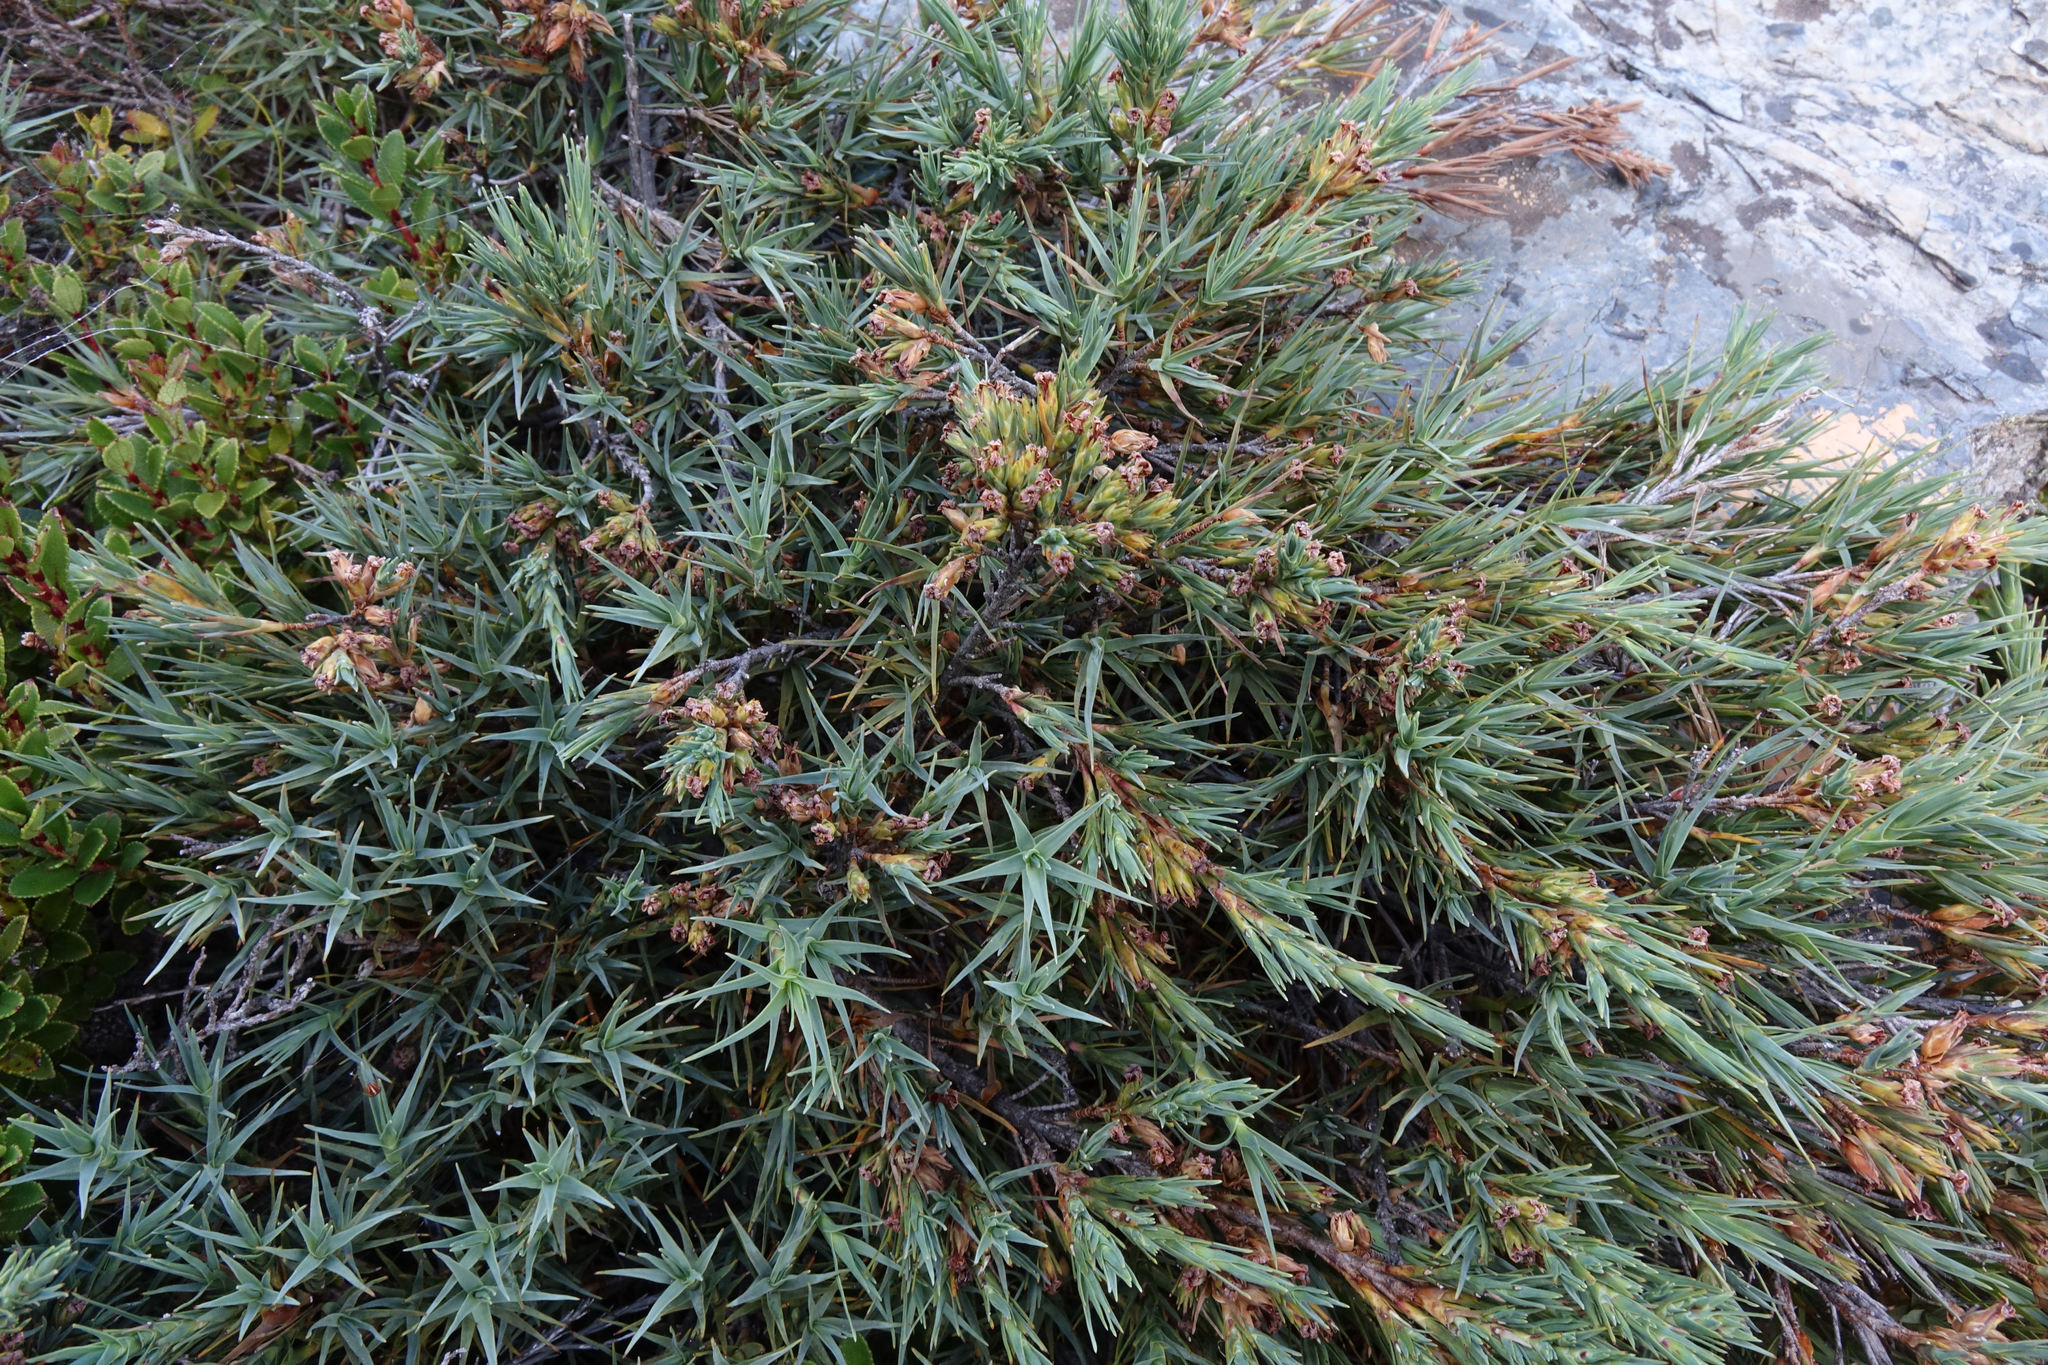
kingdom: Plantae
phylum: Tracheophyta
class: Magnoliopsida
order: Ericales
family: Ericaceae
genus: Dracophyllum
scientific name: Dracophyllum kirkii
